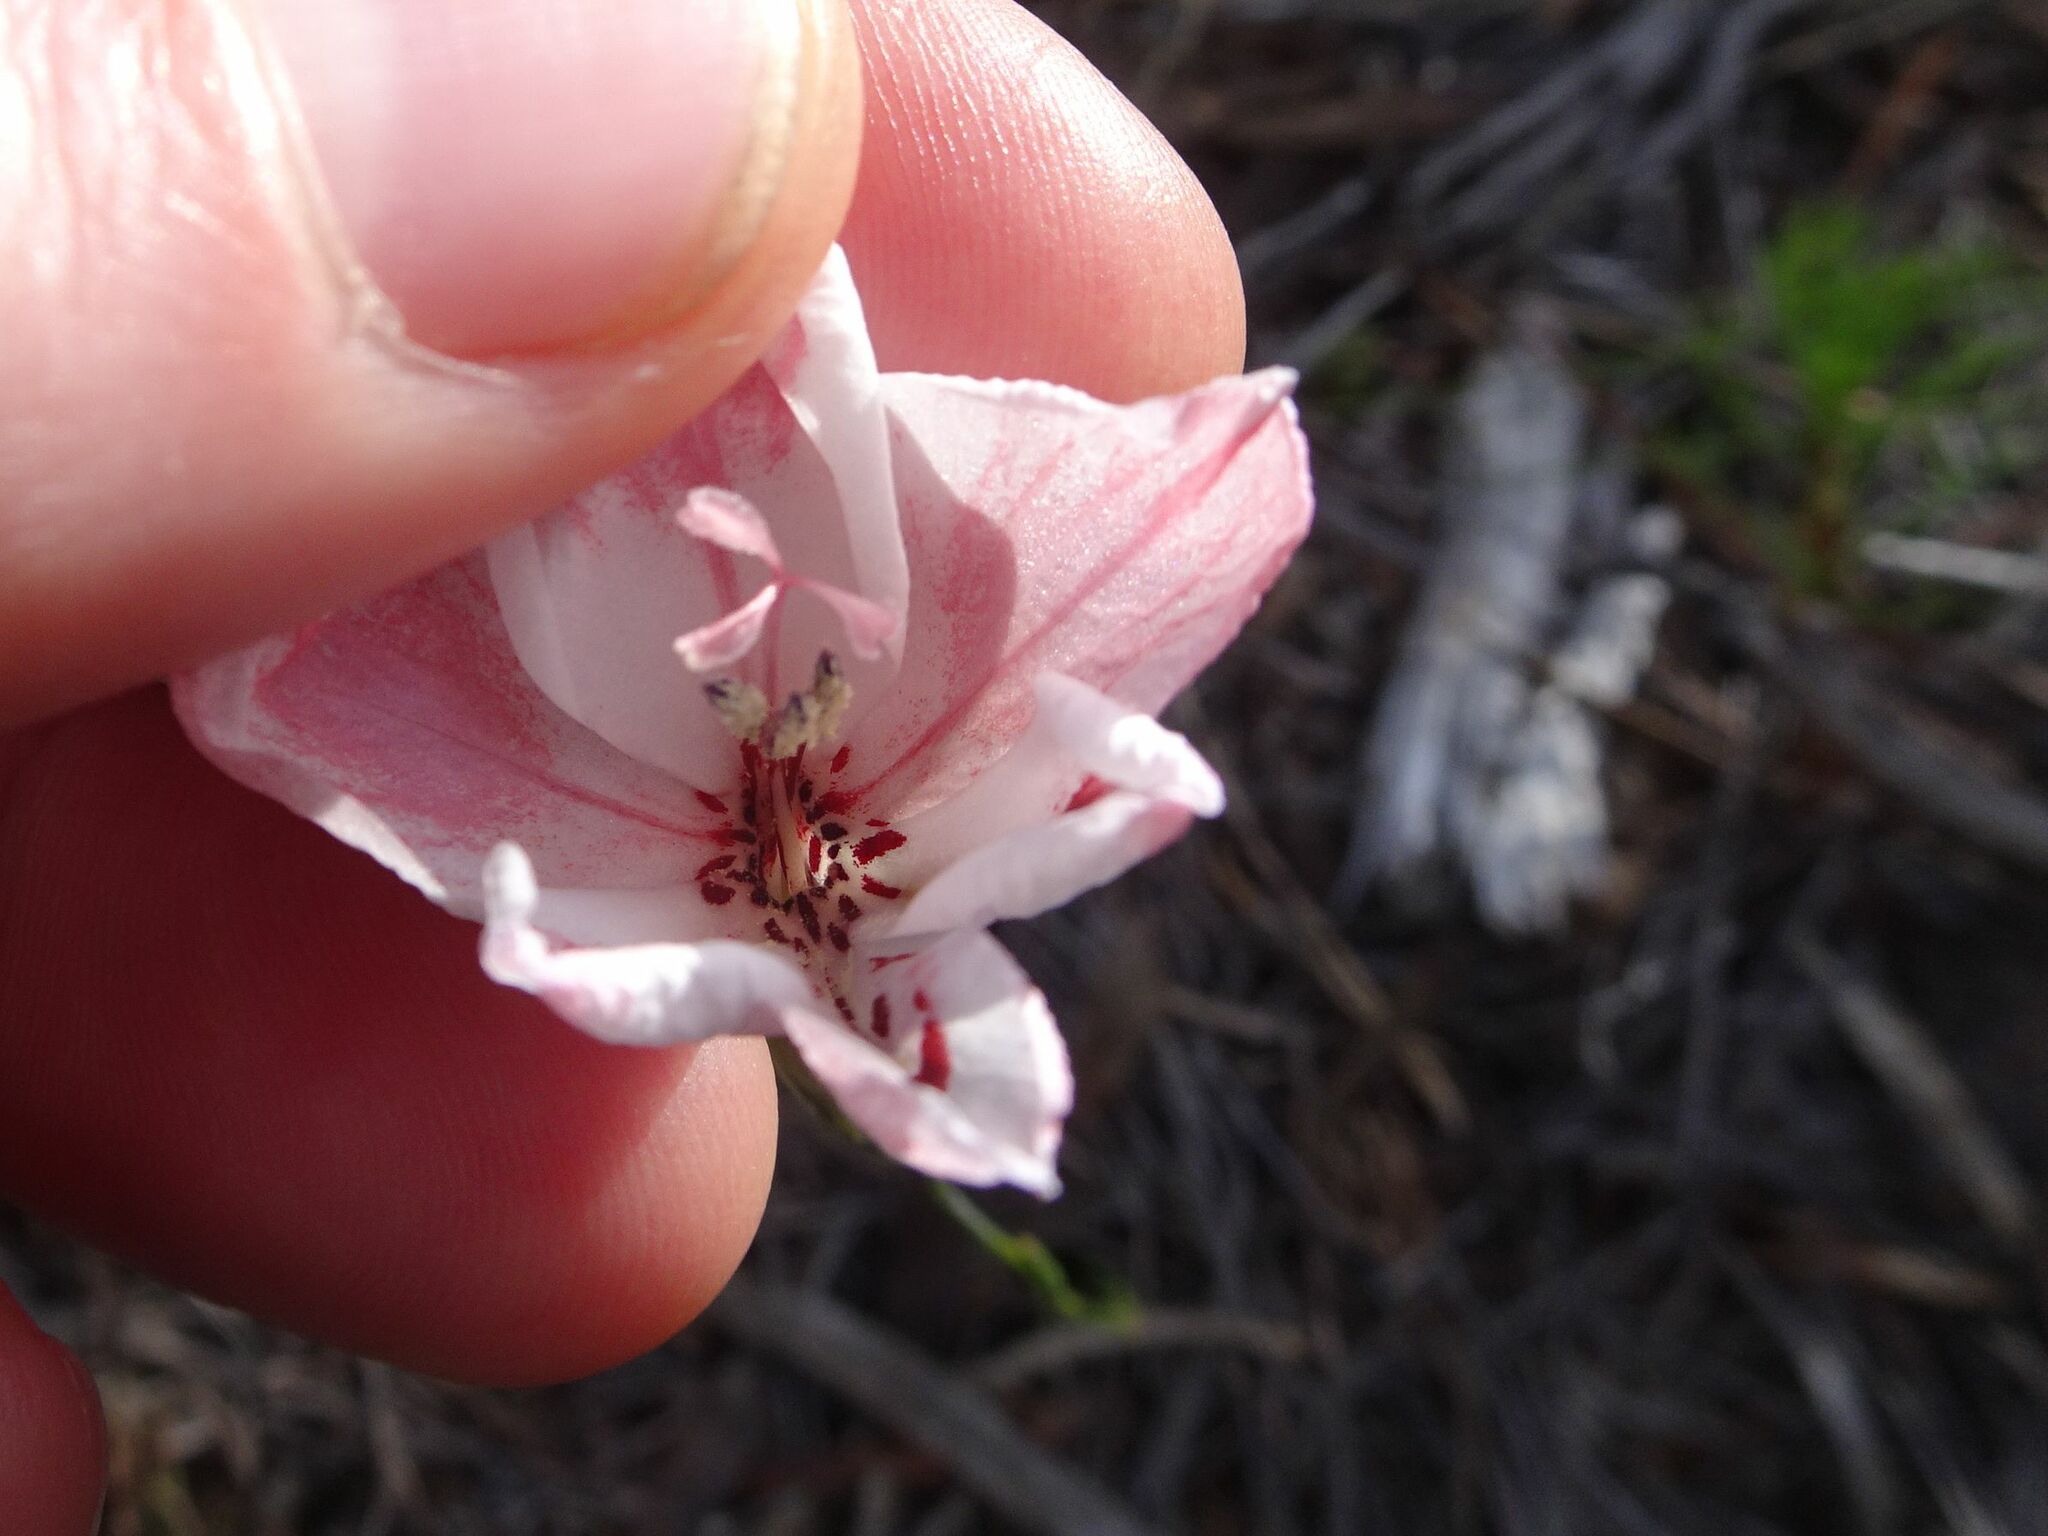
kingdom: Plantae
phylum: Tracheophyta
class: Liliopsida
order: Asparagales
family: Iridaceae
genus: Gladiolus
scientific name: Gladiolus debilis
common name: Painted-lady
